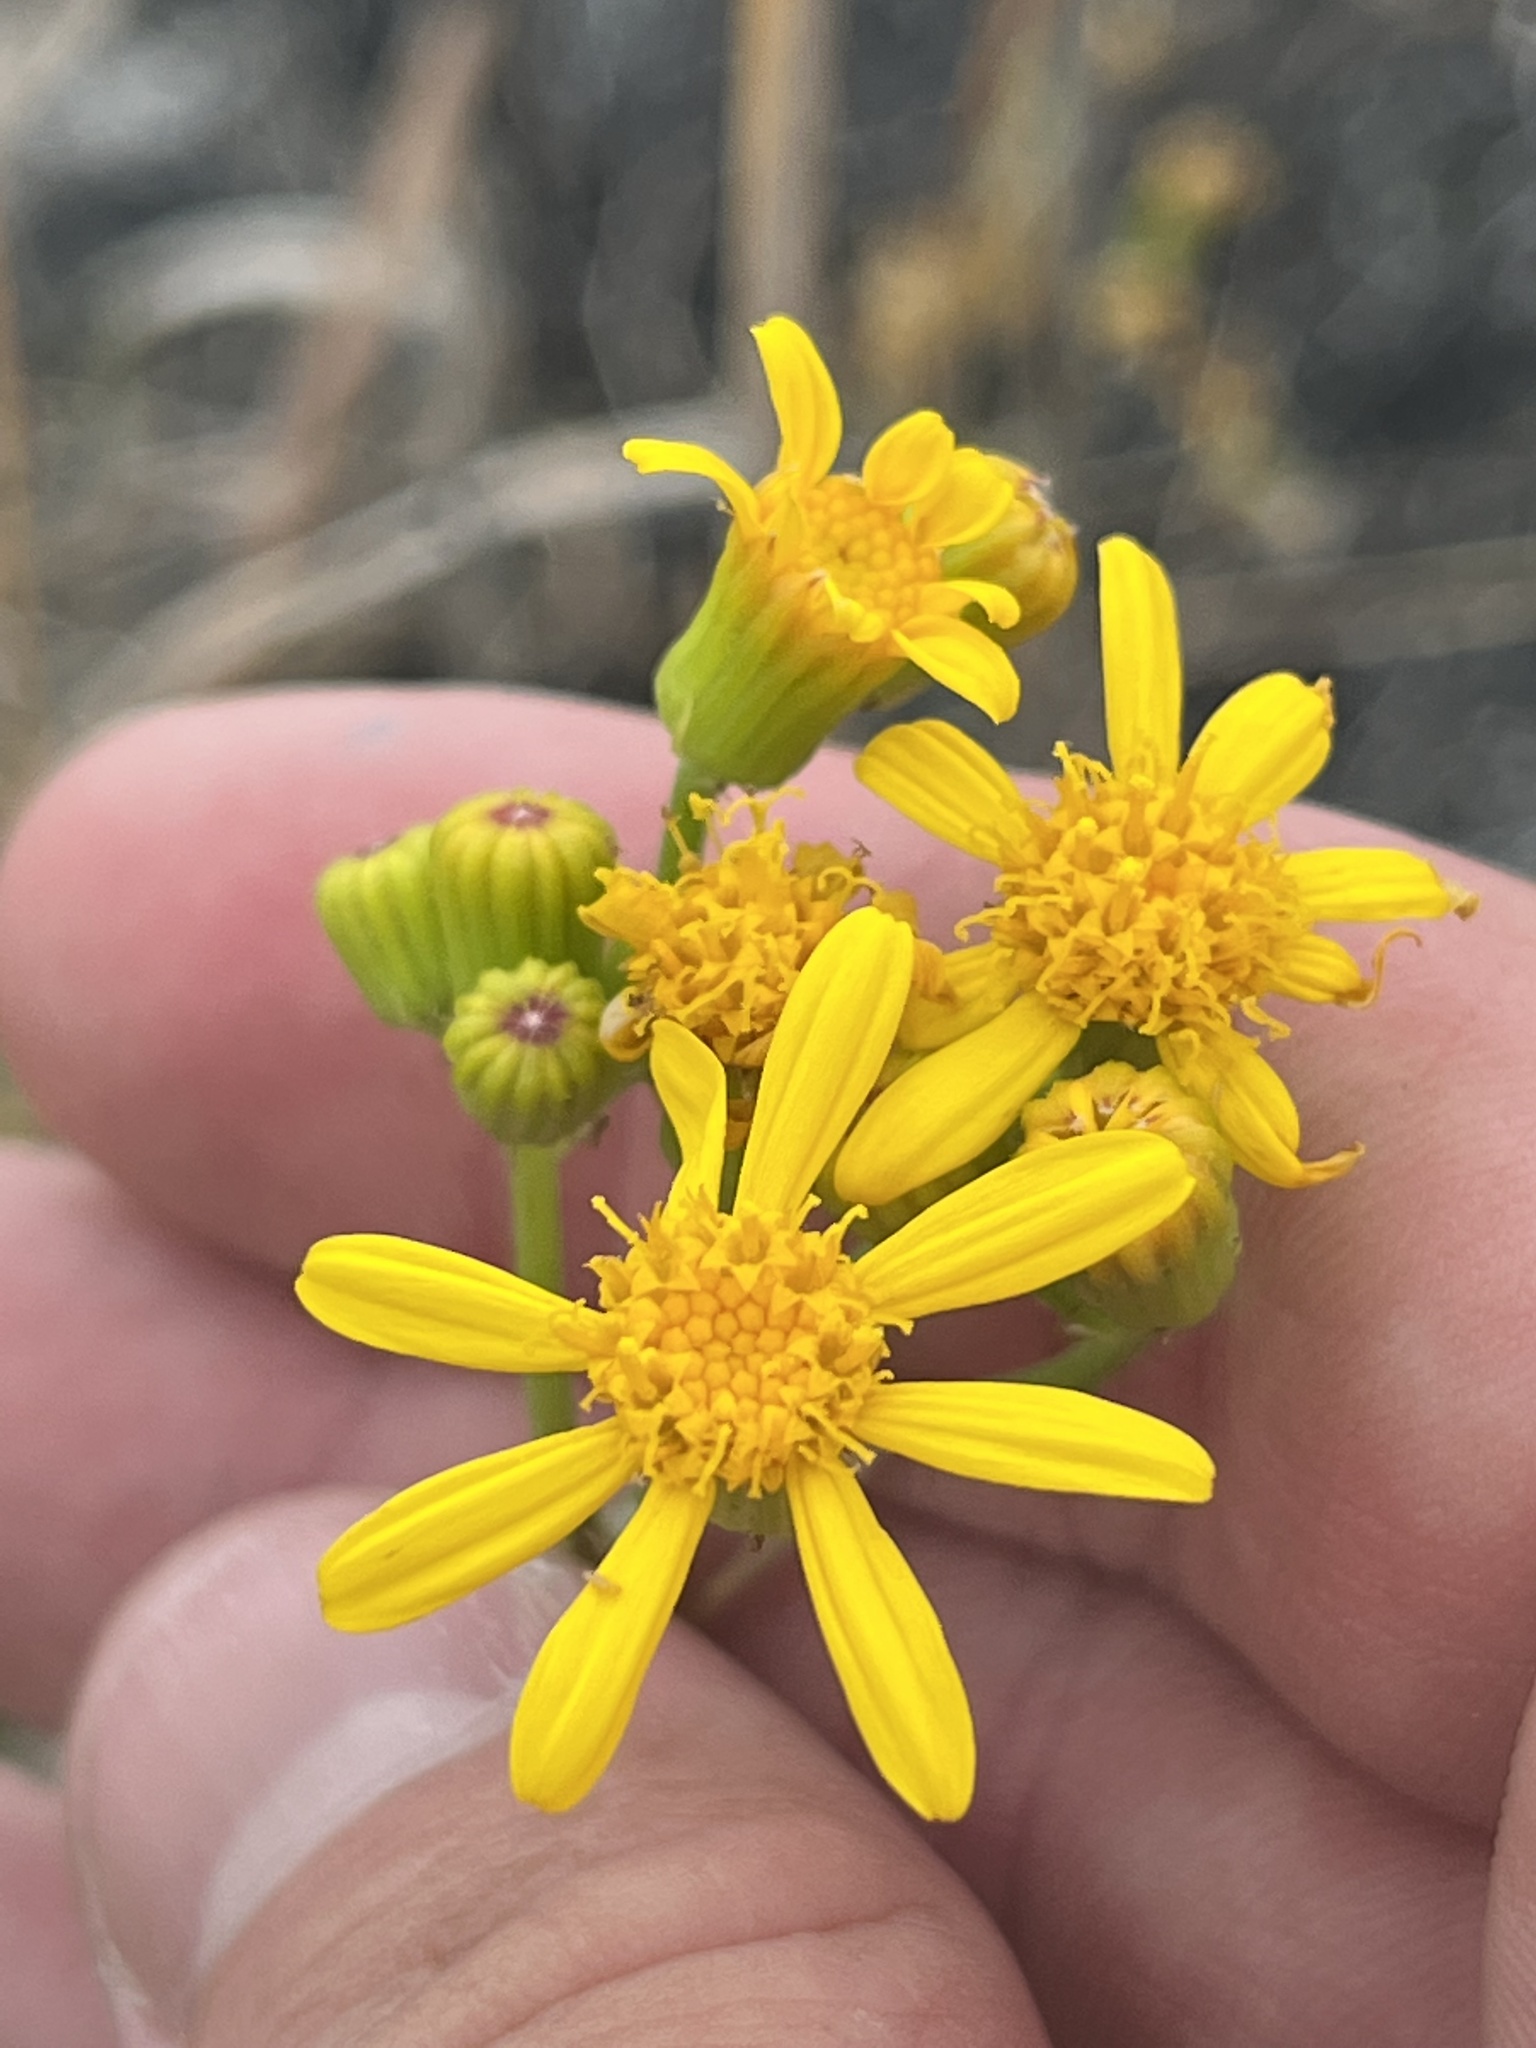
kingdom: Plantae
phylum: Tracheophyta
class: Magnoliopsida
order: Asterales
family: Asteraceae
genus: Senecio
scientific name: Senecio ampullaceus
